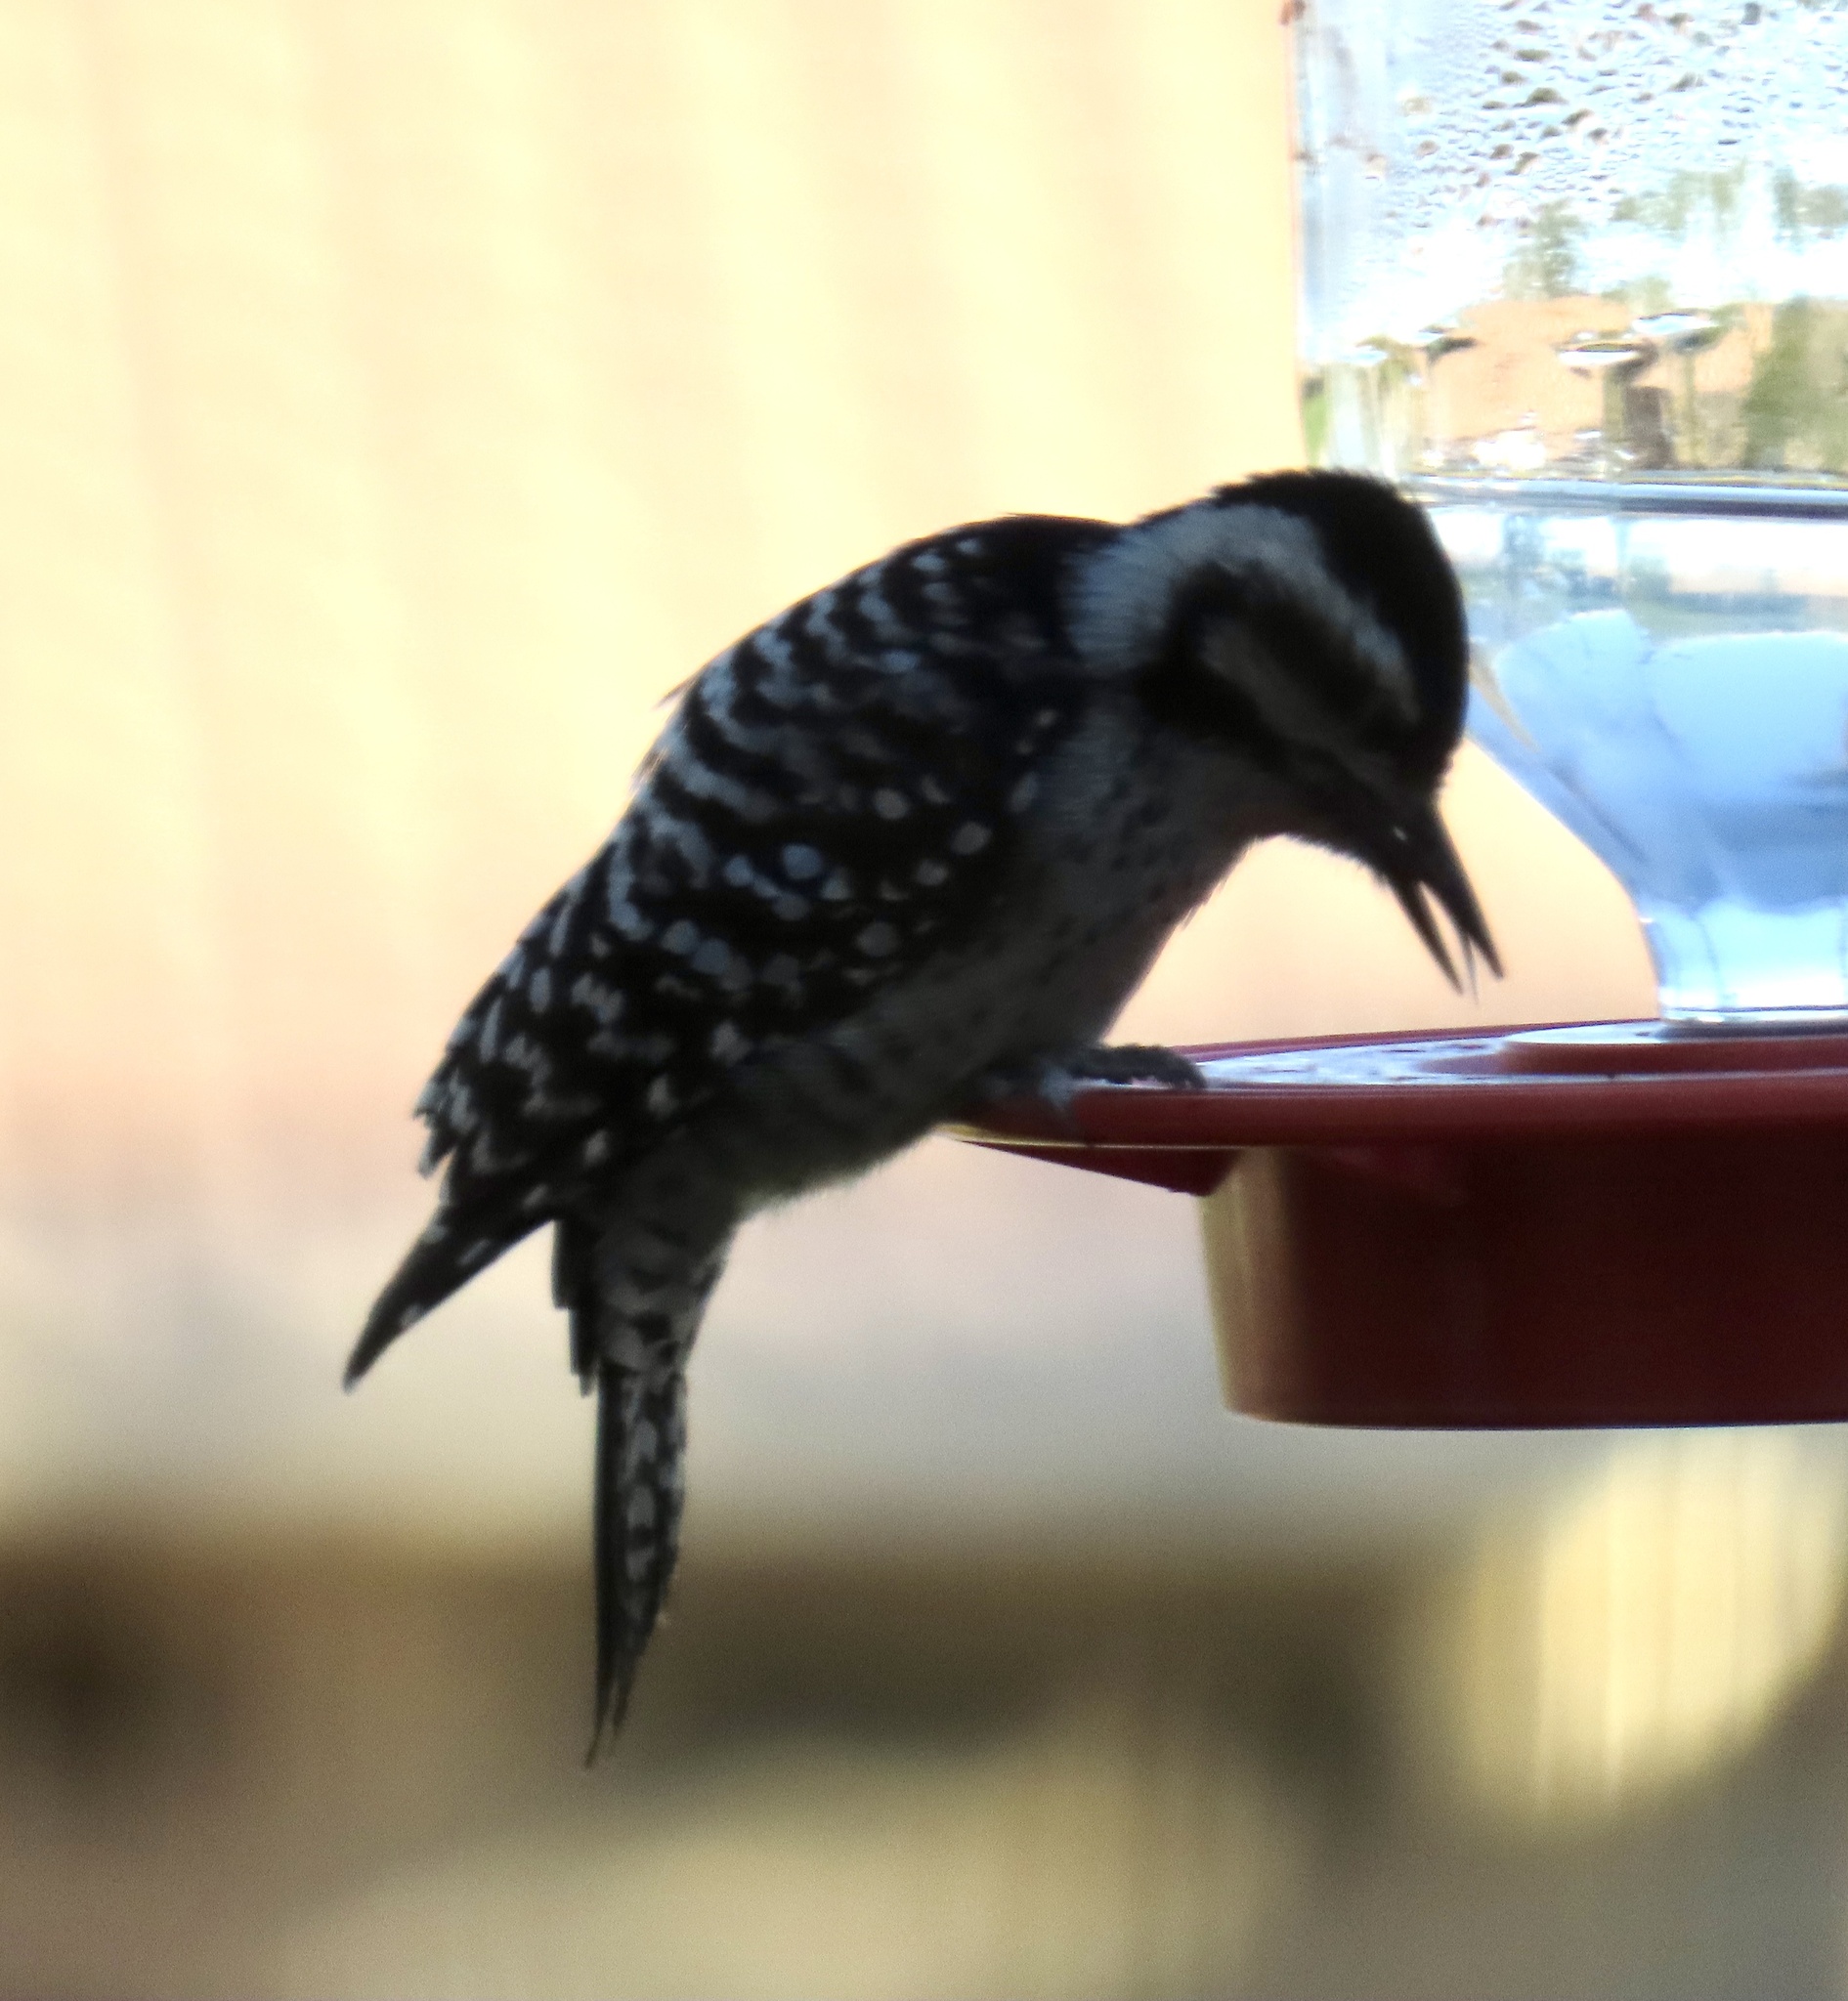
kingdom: Animalia
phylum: Chordata
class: Aves
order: Piciformes
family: Picidae
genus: Dryobates
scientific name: Dryobates scalaris
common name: Ladder-backed woodpecker
